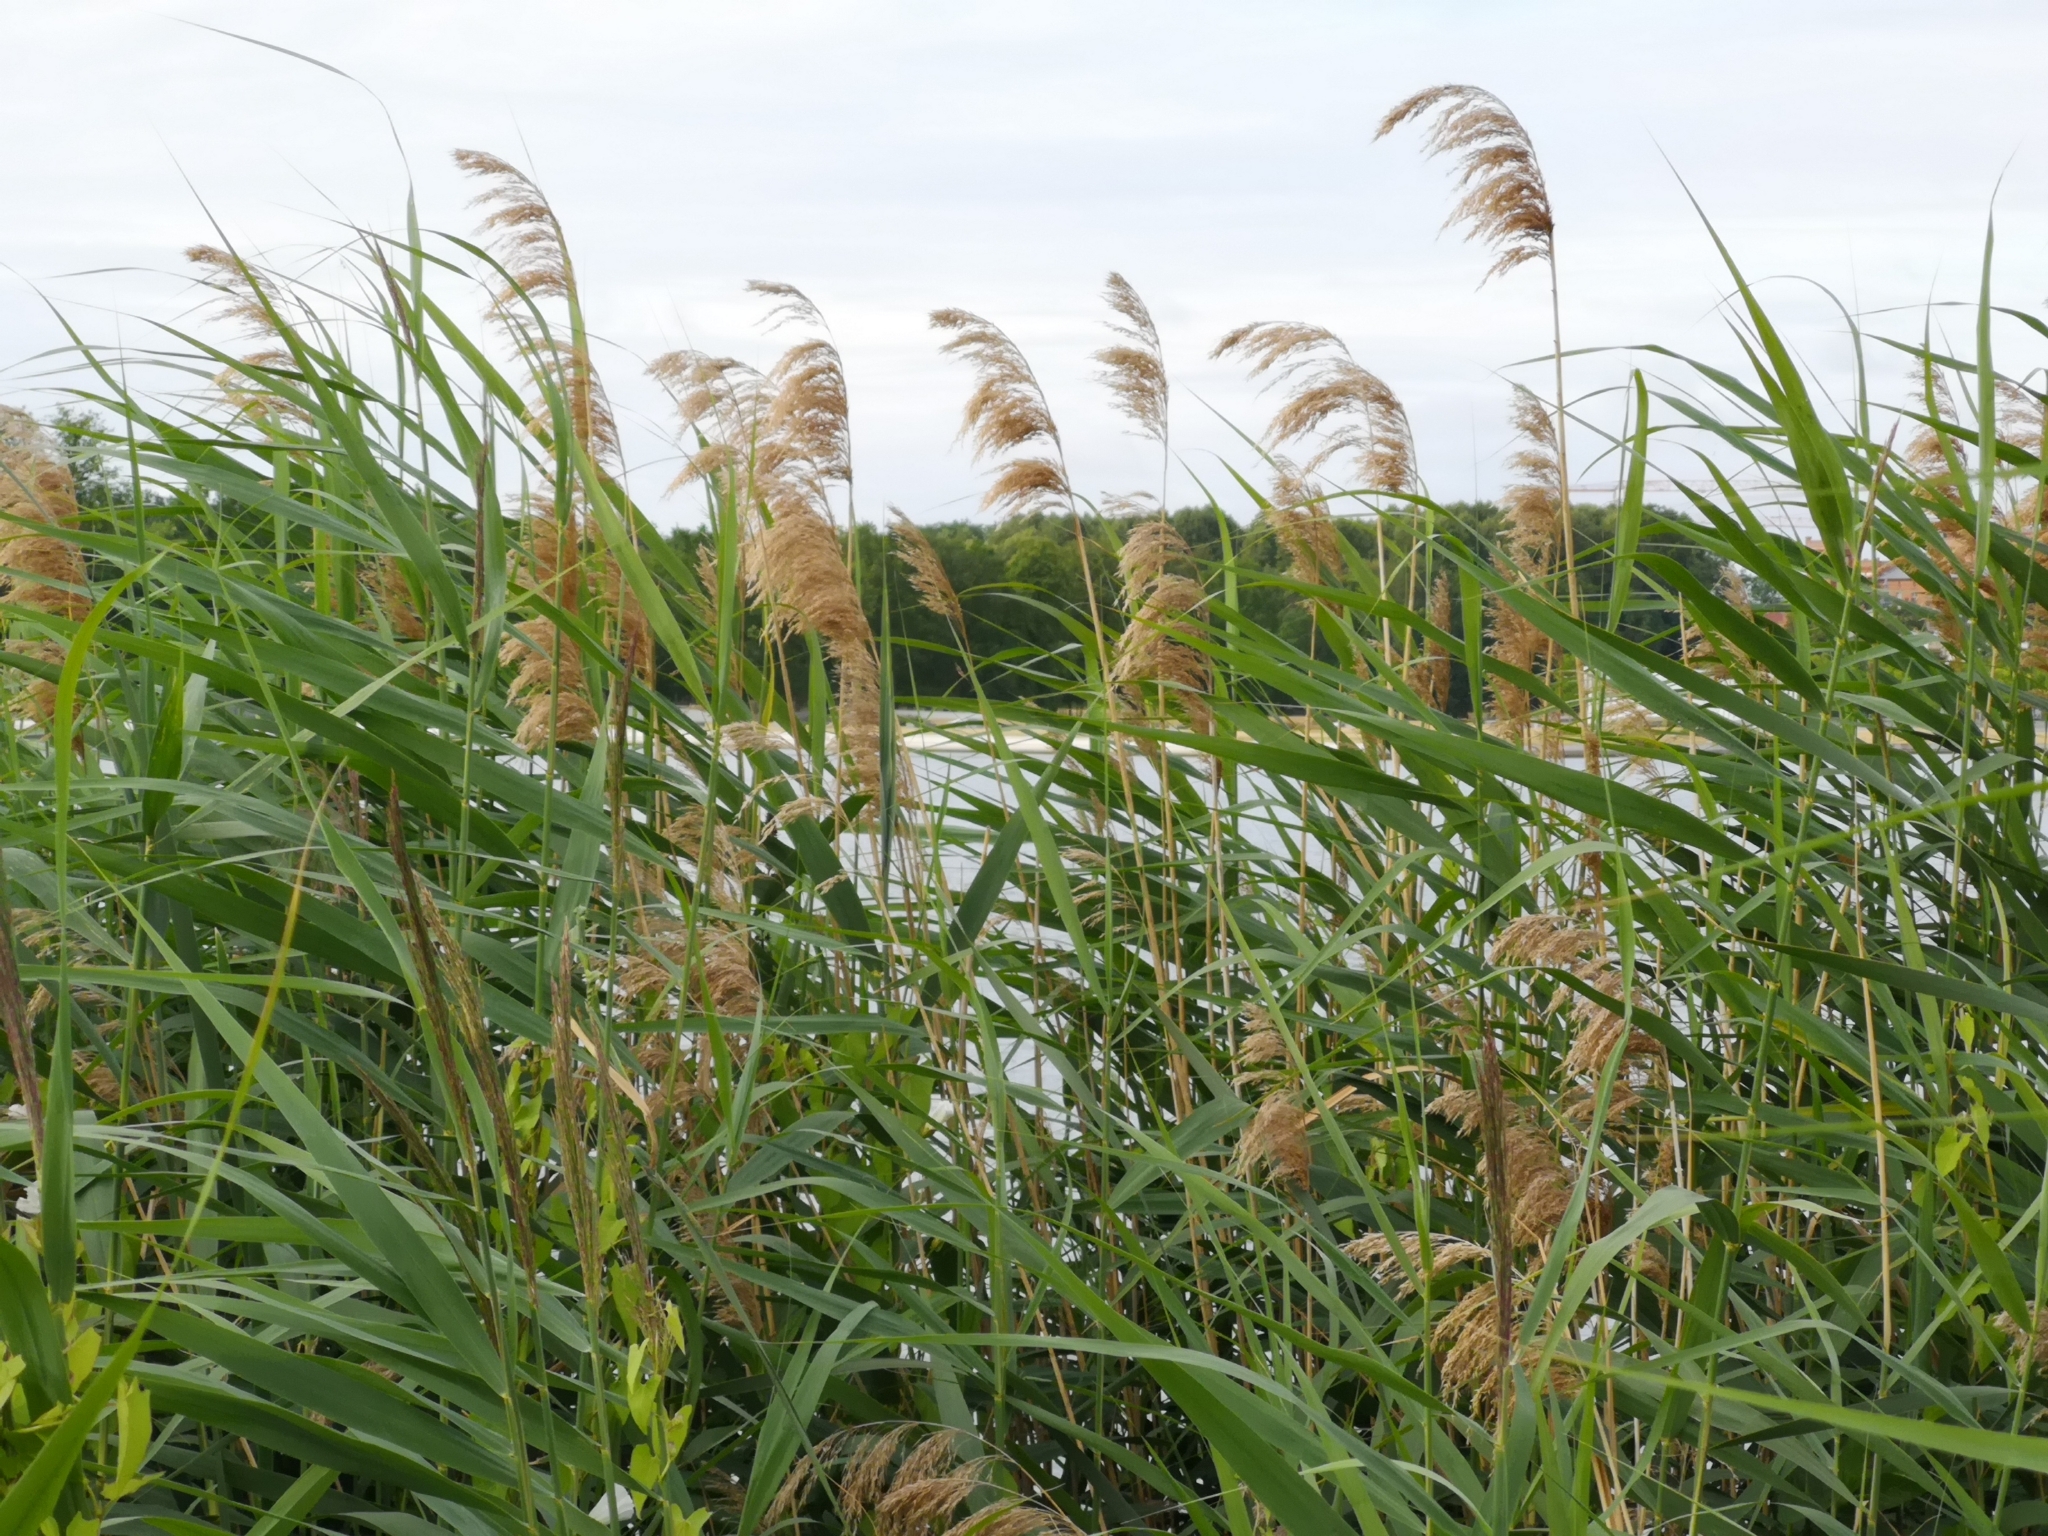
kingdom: Plantae
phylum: Tracheophyta
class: Liliopsida
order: Poales
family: Poaceae
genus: Phragmites
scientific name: Phragmites australis
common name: Common reed
